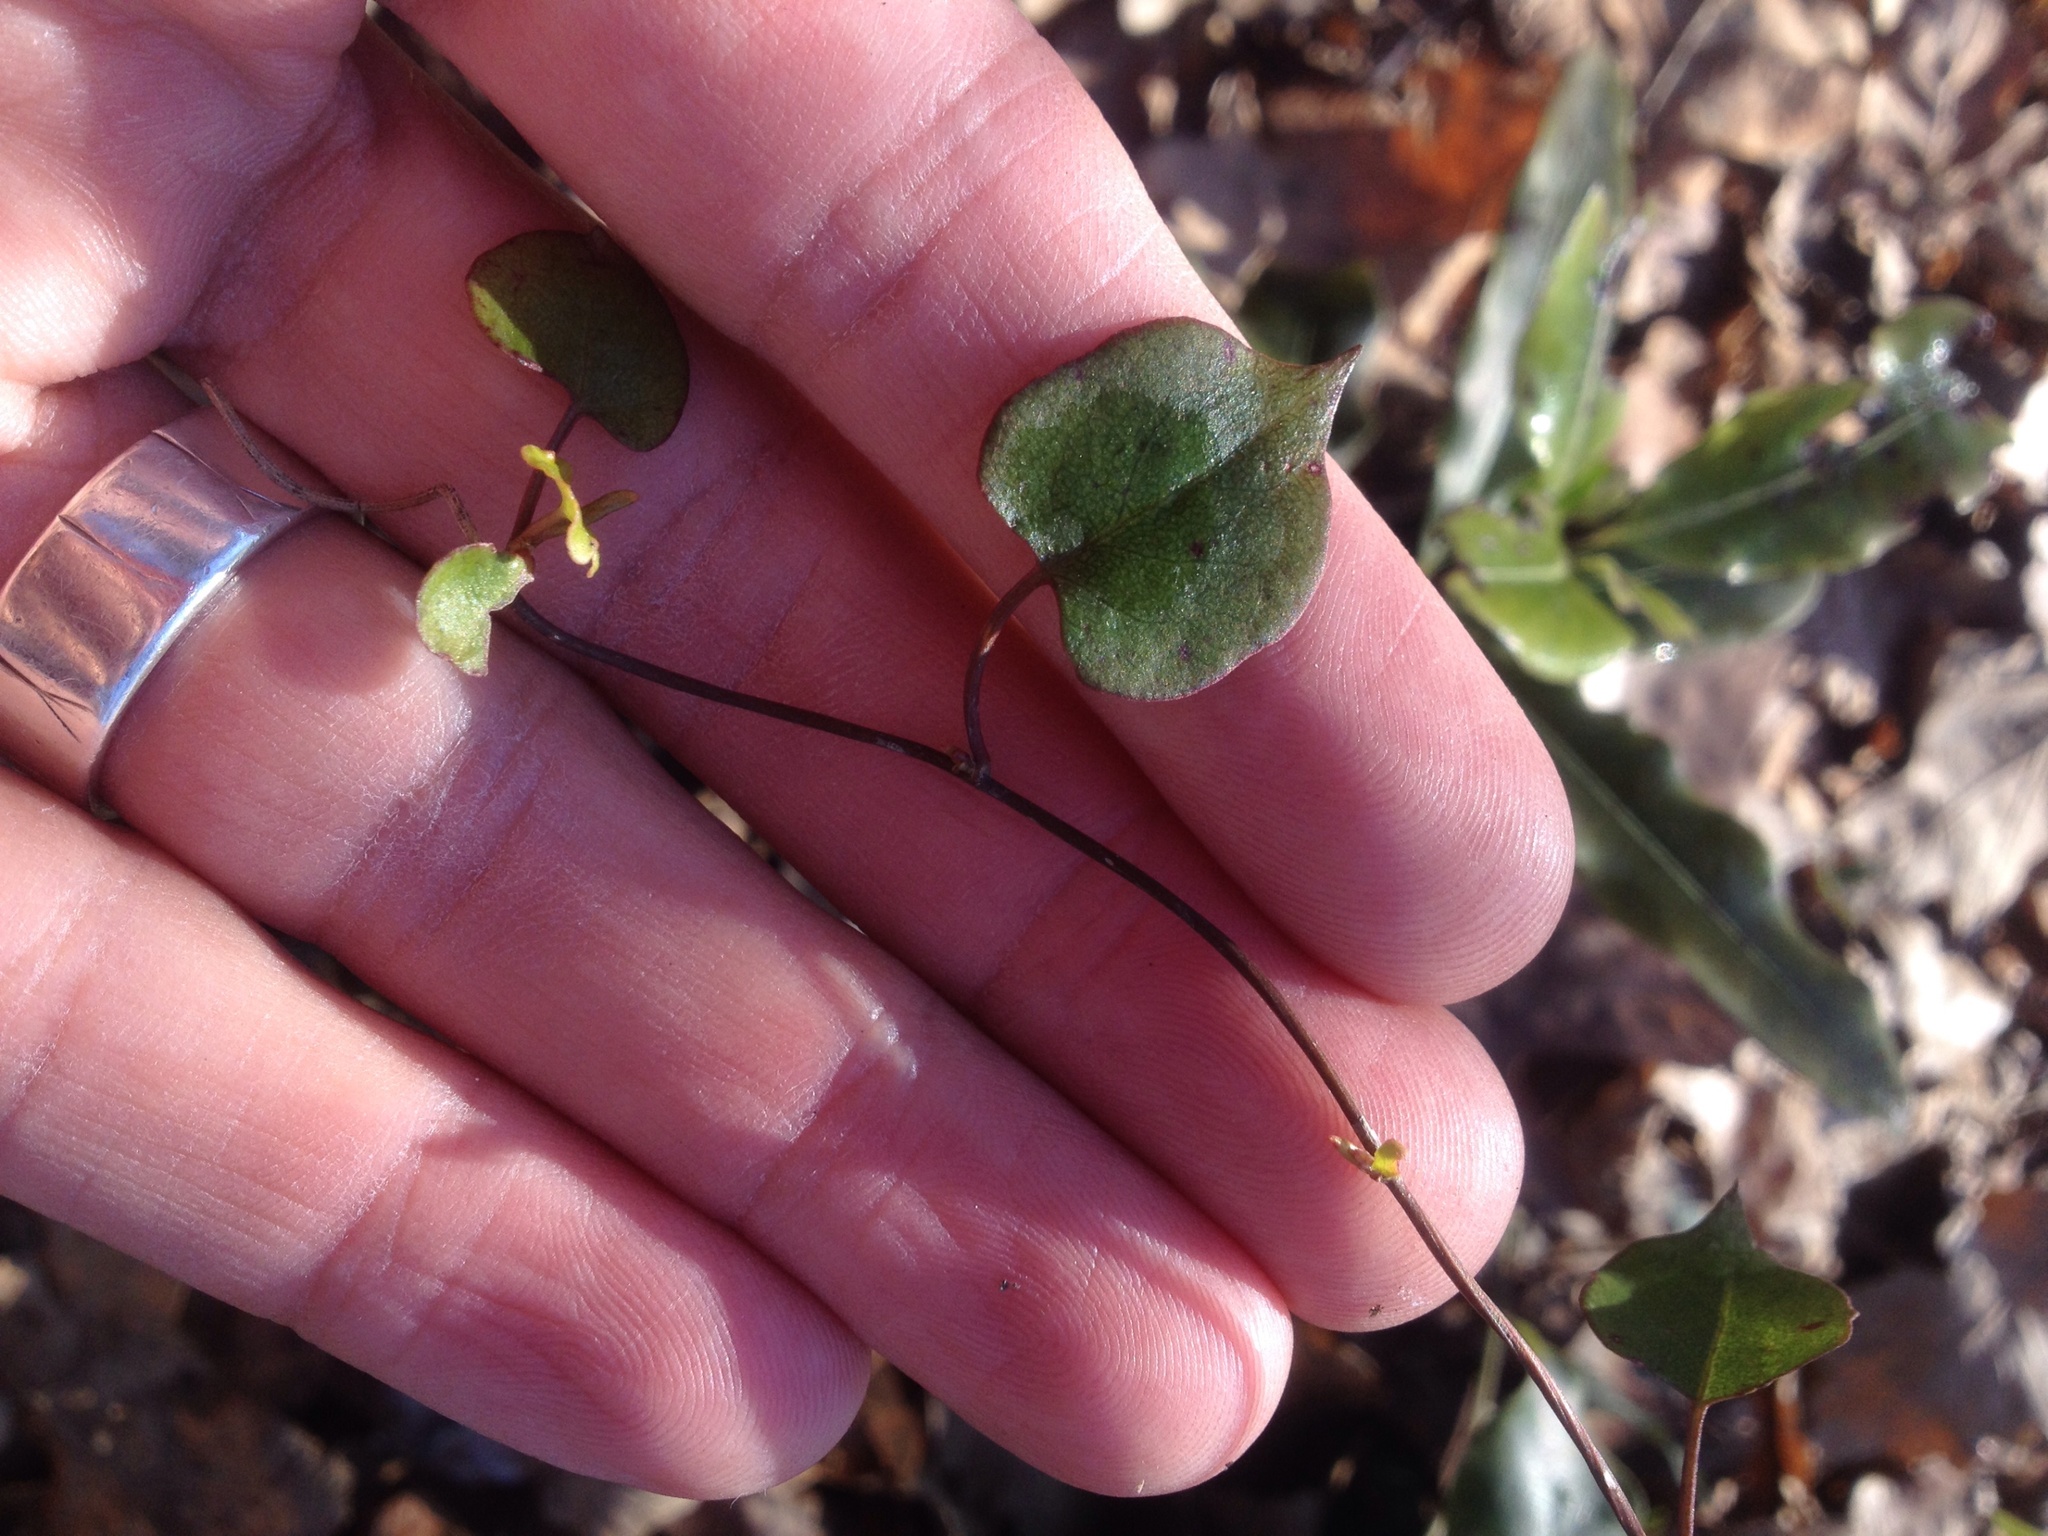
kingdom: Plantae
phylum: Tracheophyta
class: Magnoliopsida
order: Caryophyllales
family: Polygonaceae
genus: Muehlenbeckia
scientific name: Muehlenbeckia australis
